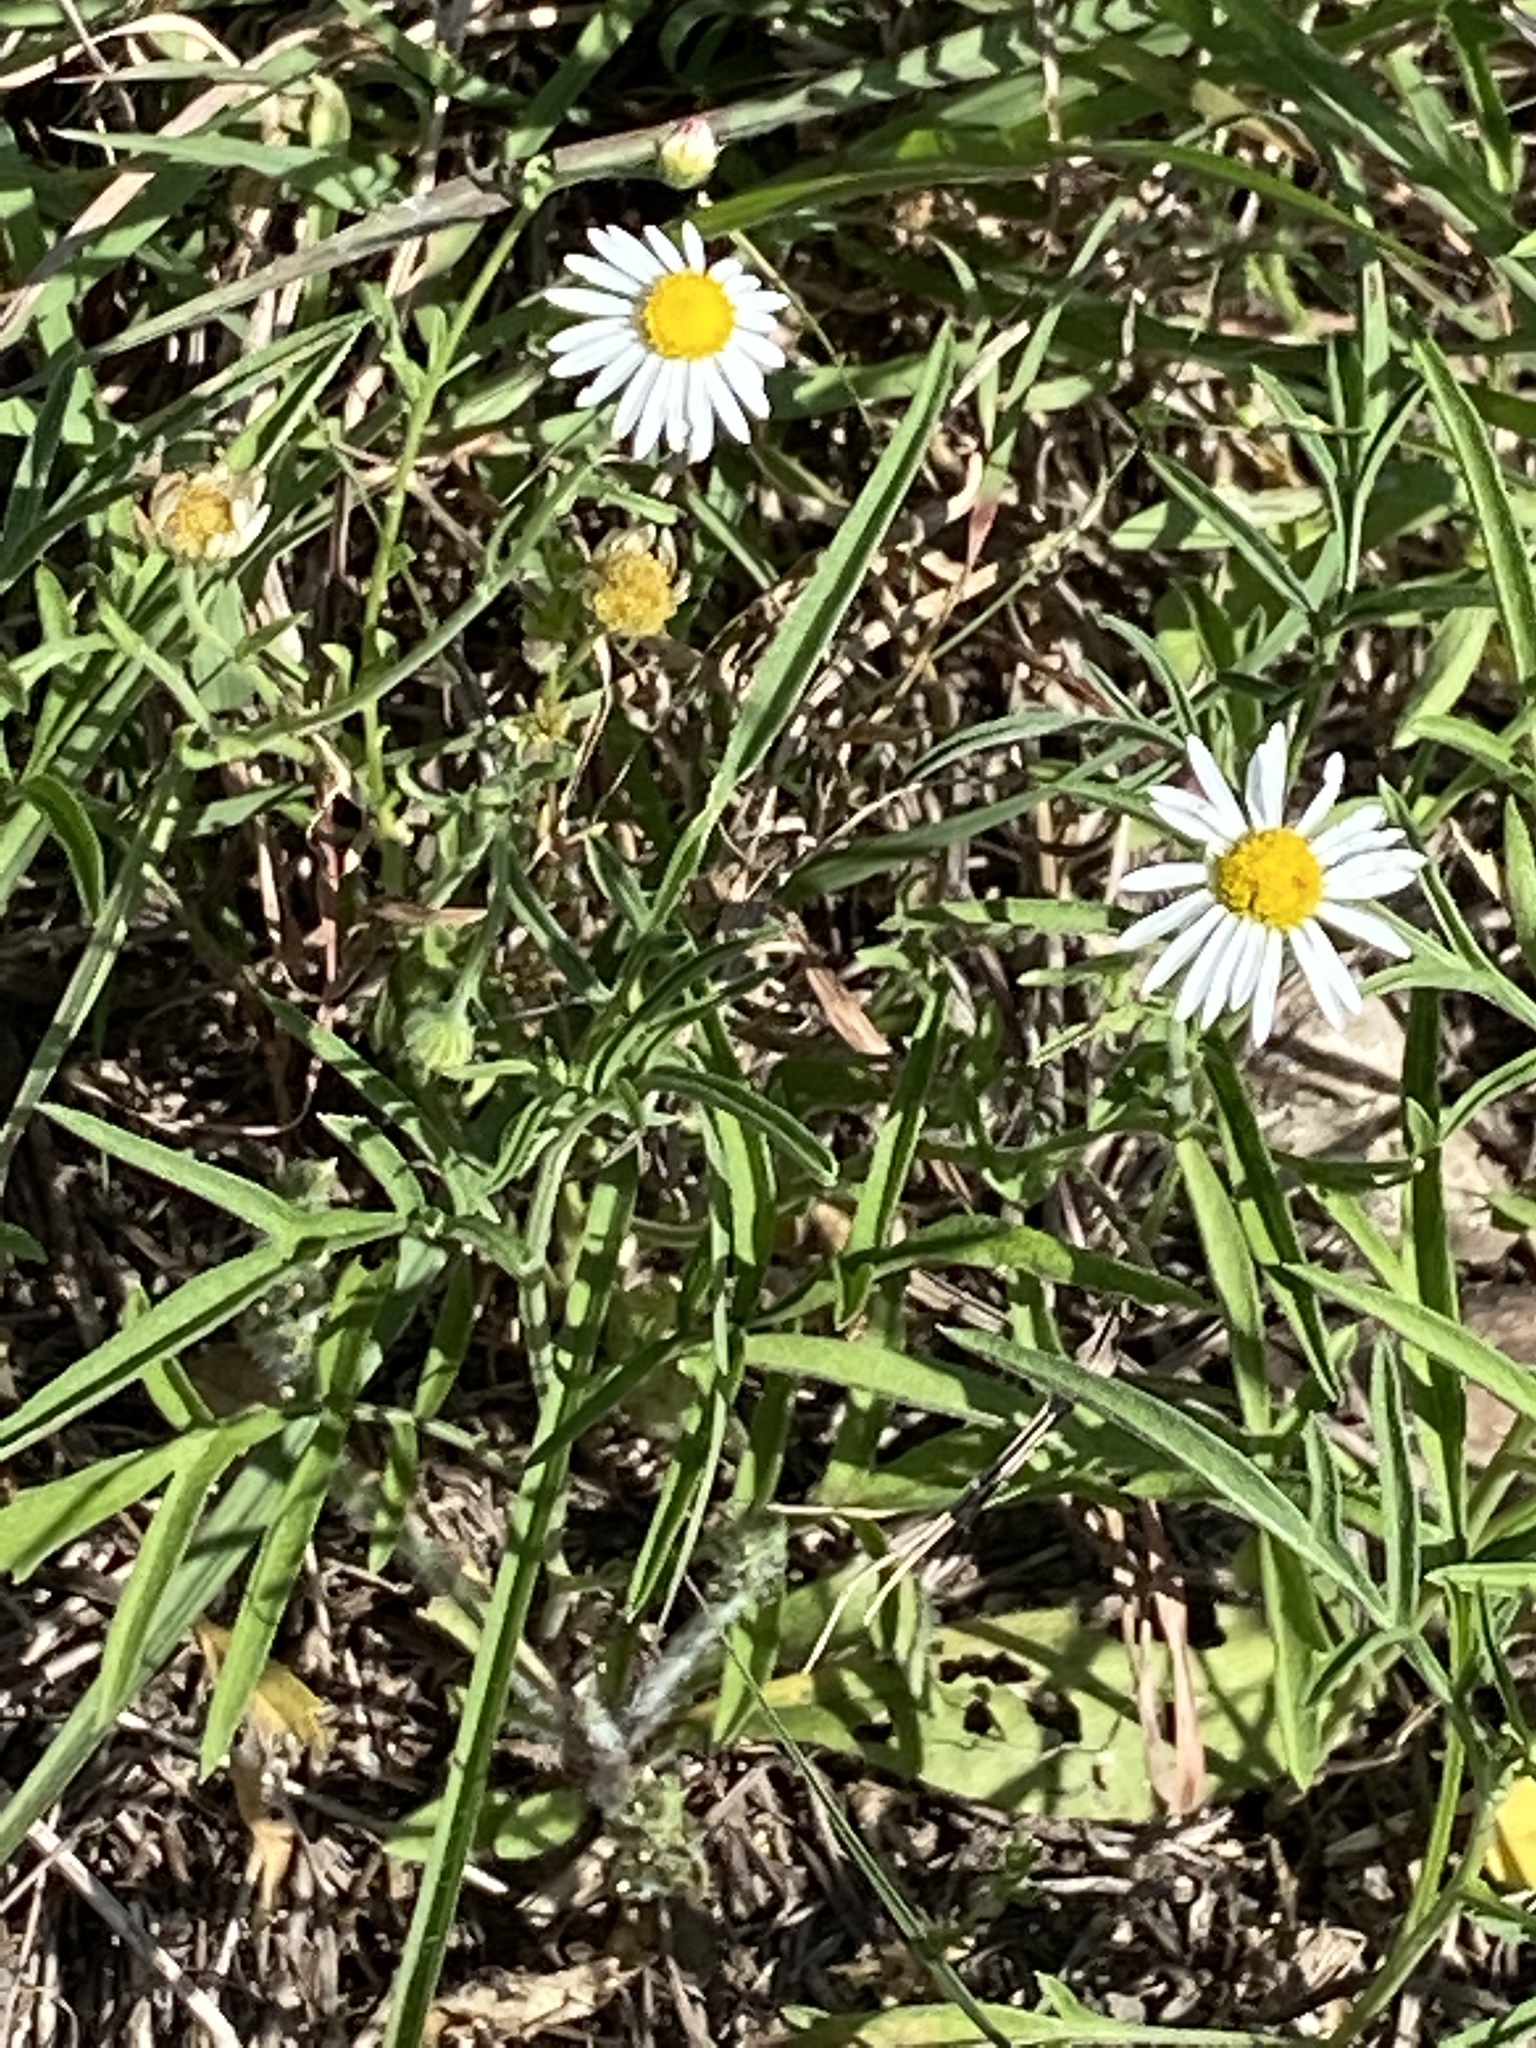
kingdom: Plantae
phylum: Tracheophyta
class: Magnoliopsida
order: Asterales
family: Asteraceae
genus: Erigeron
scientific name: Erigeron modestus
